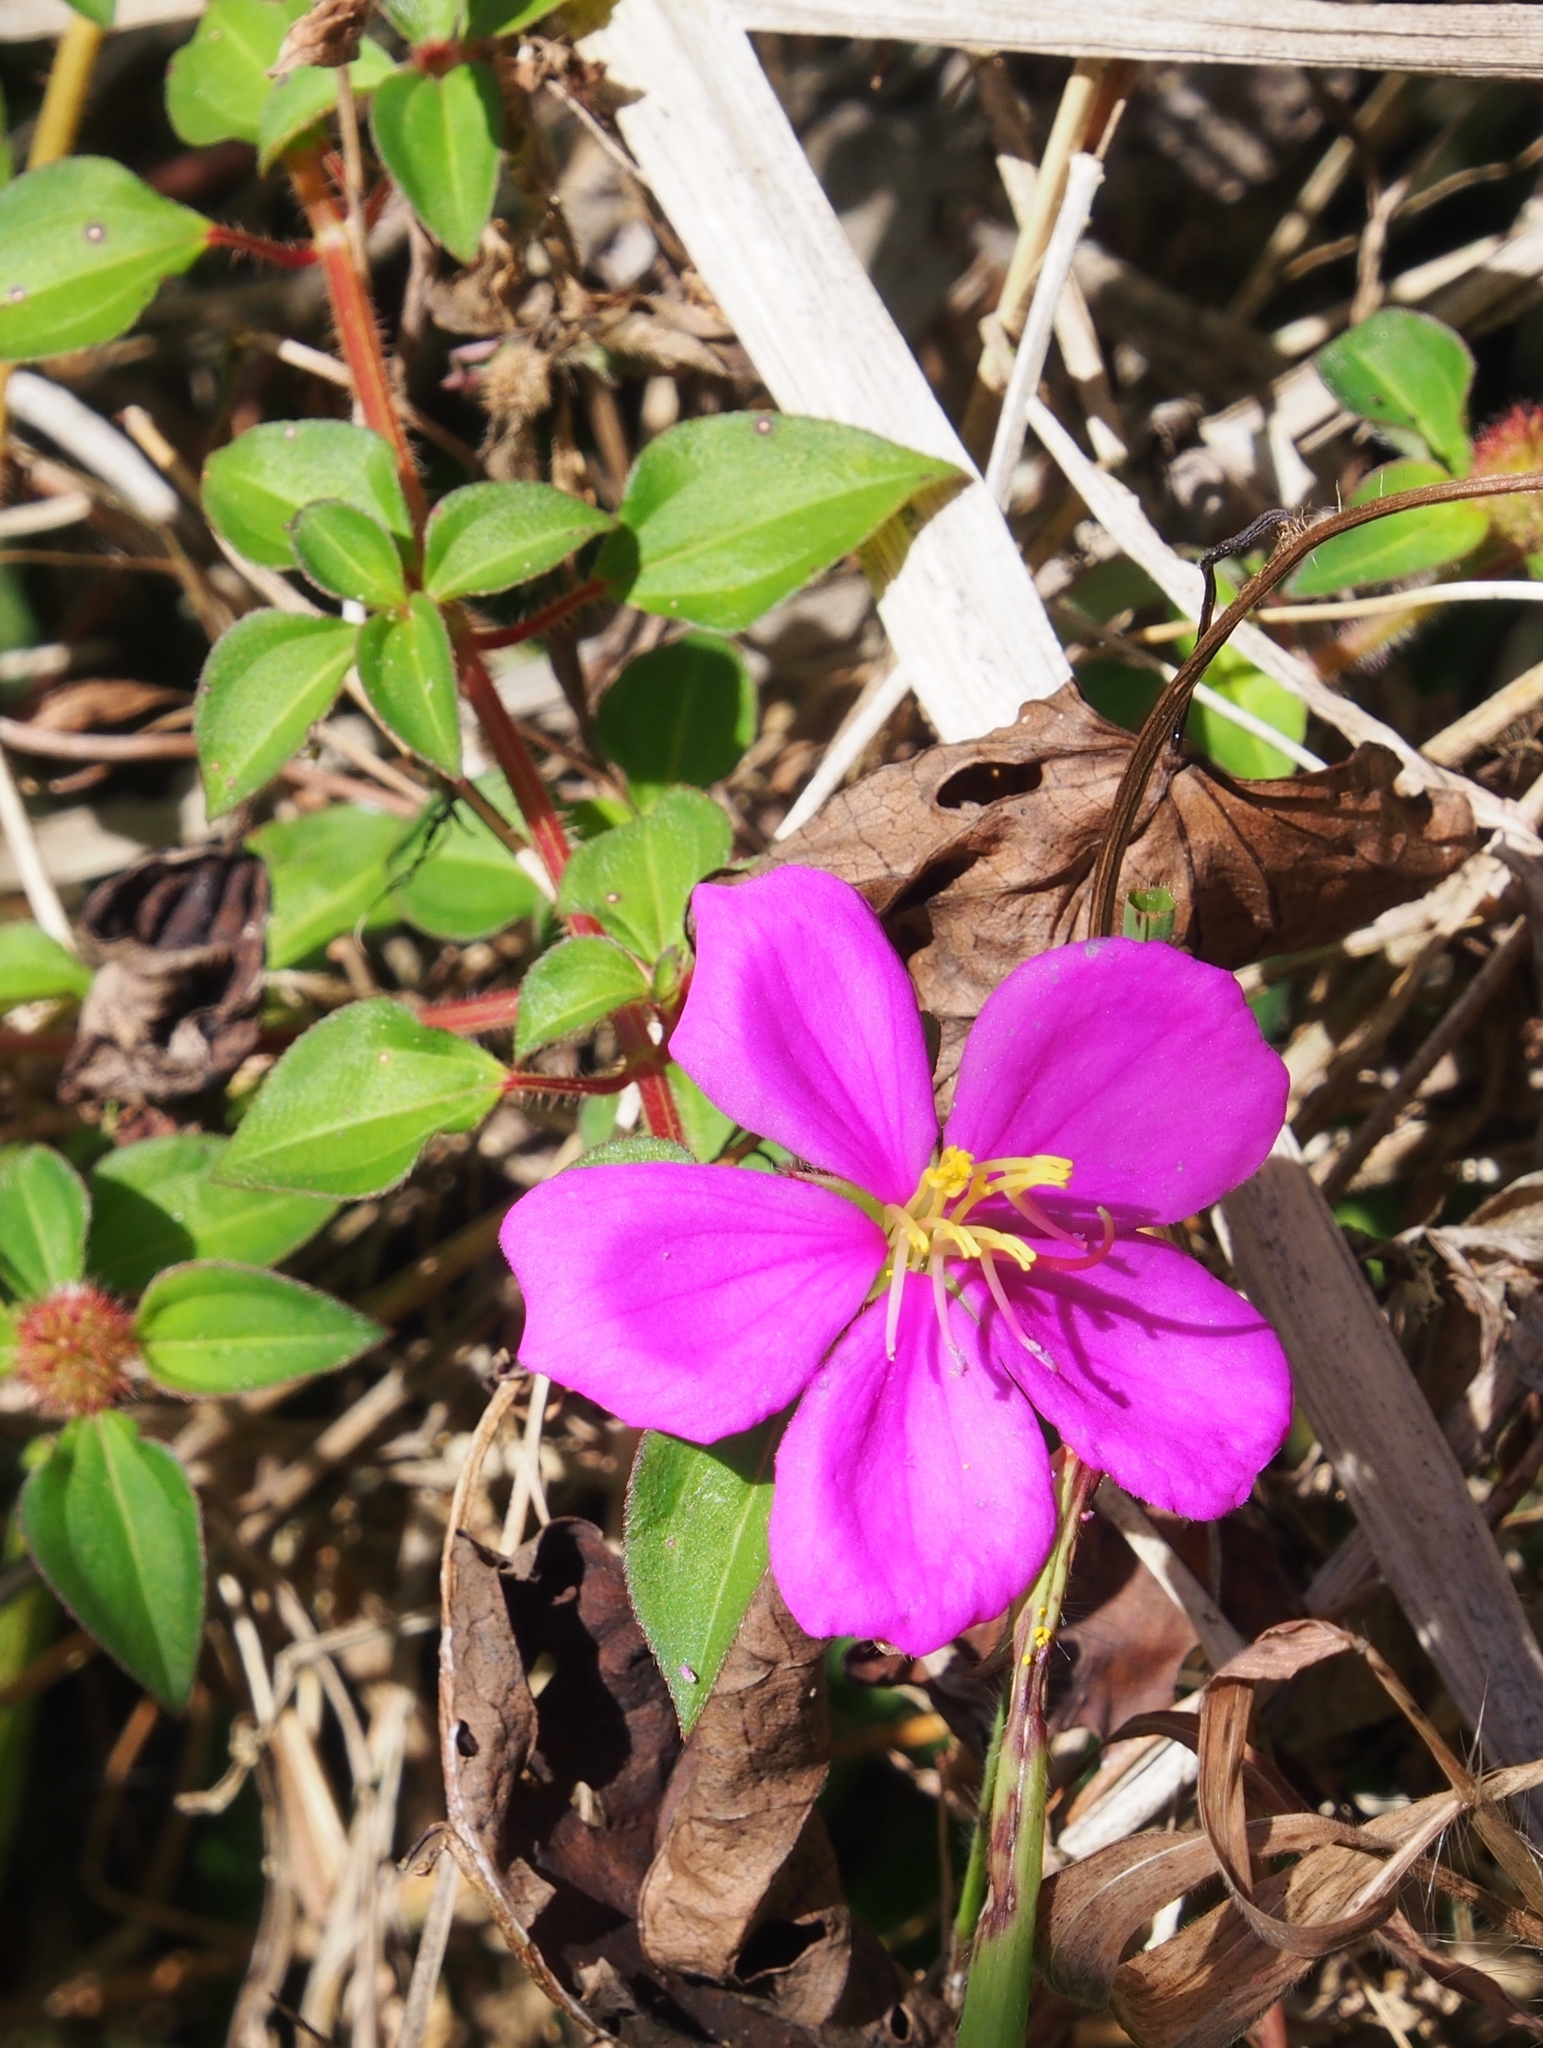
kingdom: Plantae
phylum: Tracheophyta
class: Magnoliopsida
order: Myrtales
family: Melastomataceae
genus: Heterotis
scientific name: Heterotis rotundifolia
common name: Pinklady
